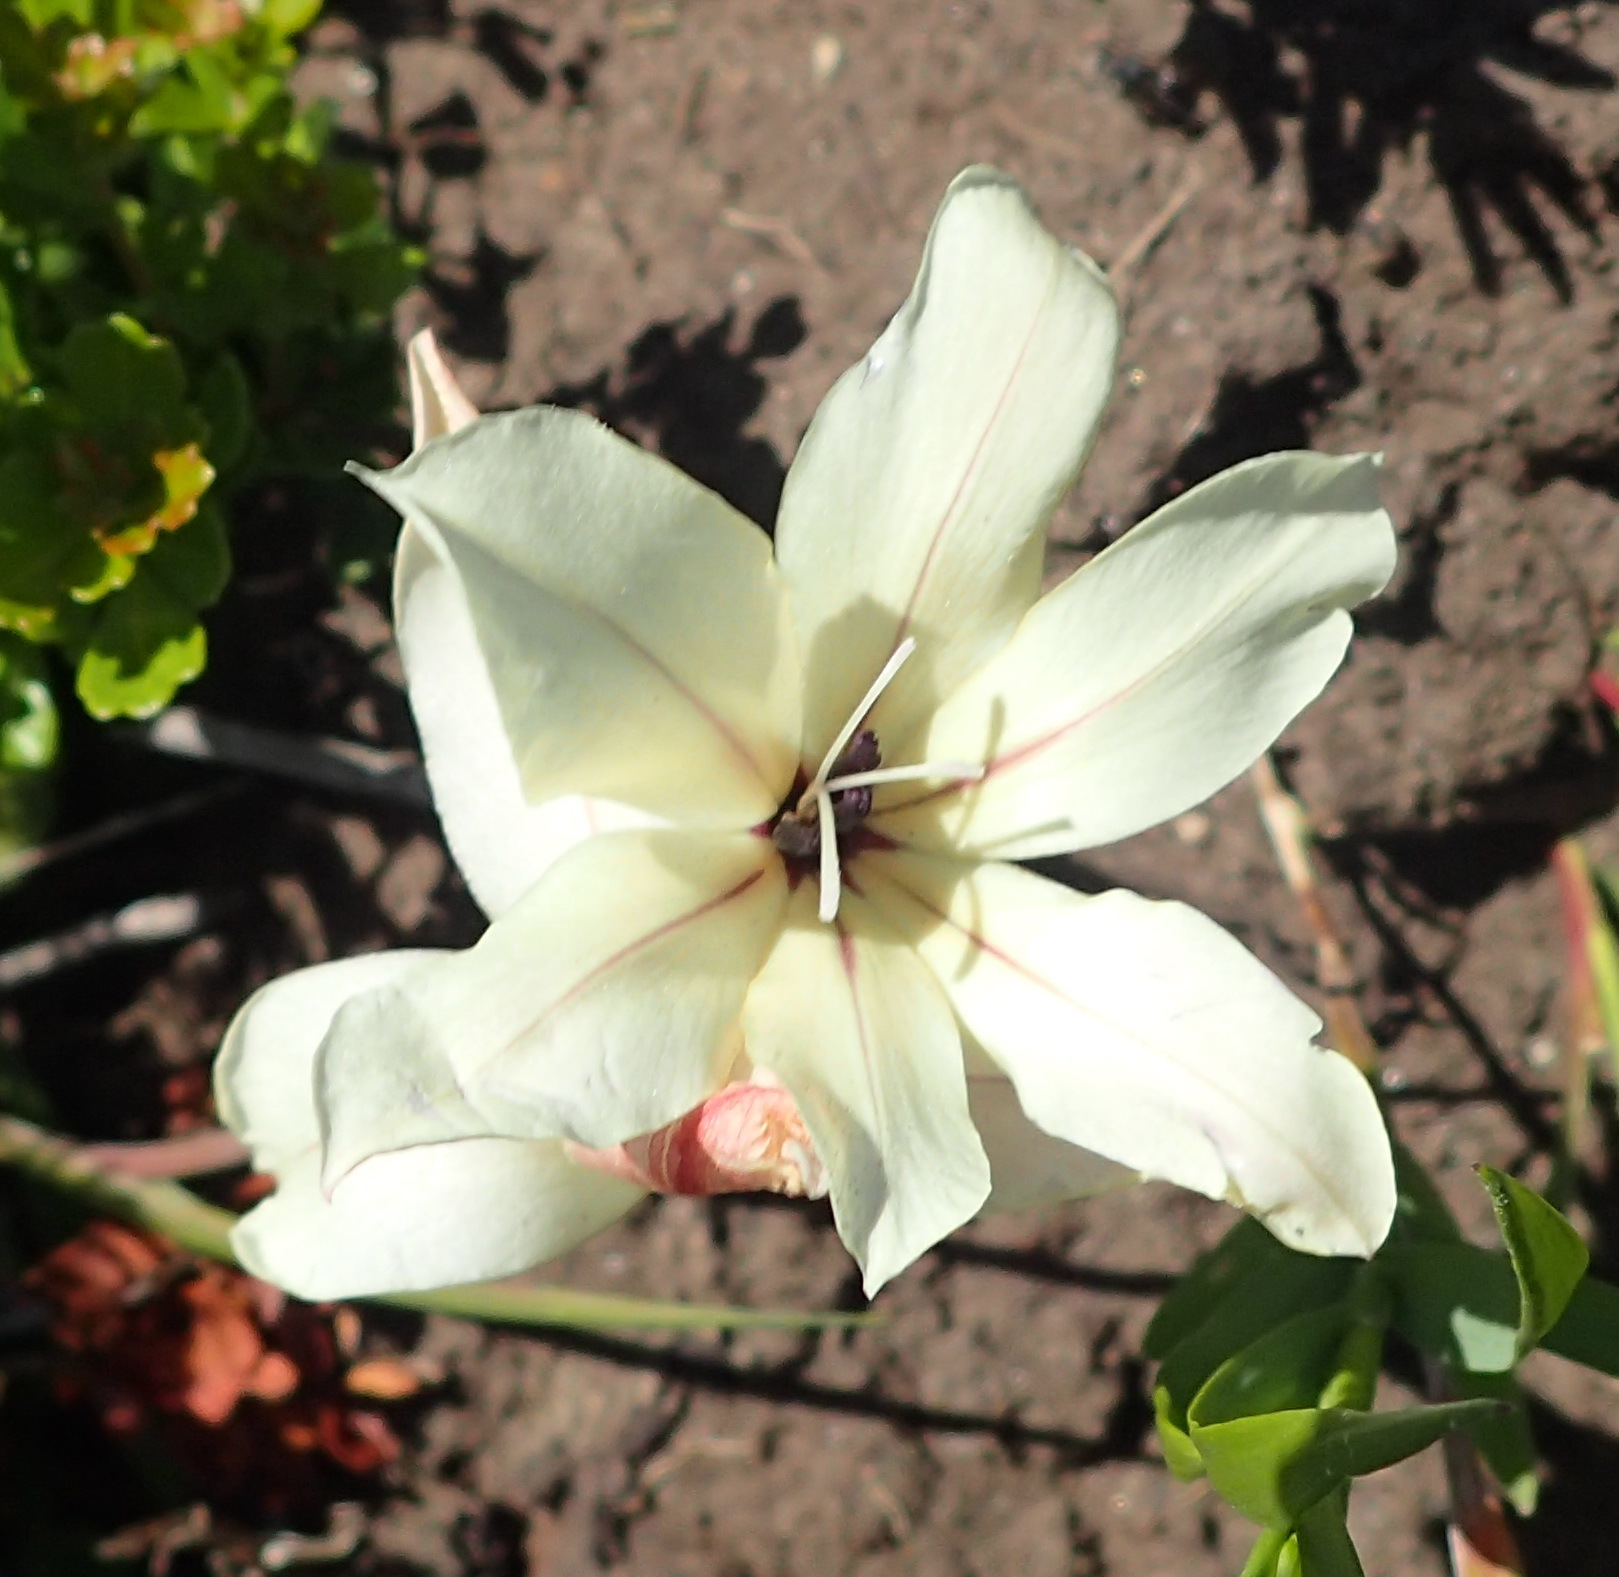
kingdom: Plantae
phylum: Tracheophyta
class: Liliopsida
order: Asparagales
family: Iridaceae
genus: Gladiolus
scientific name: Gladiolus floribundus
